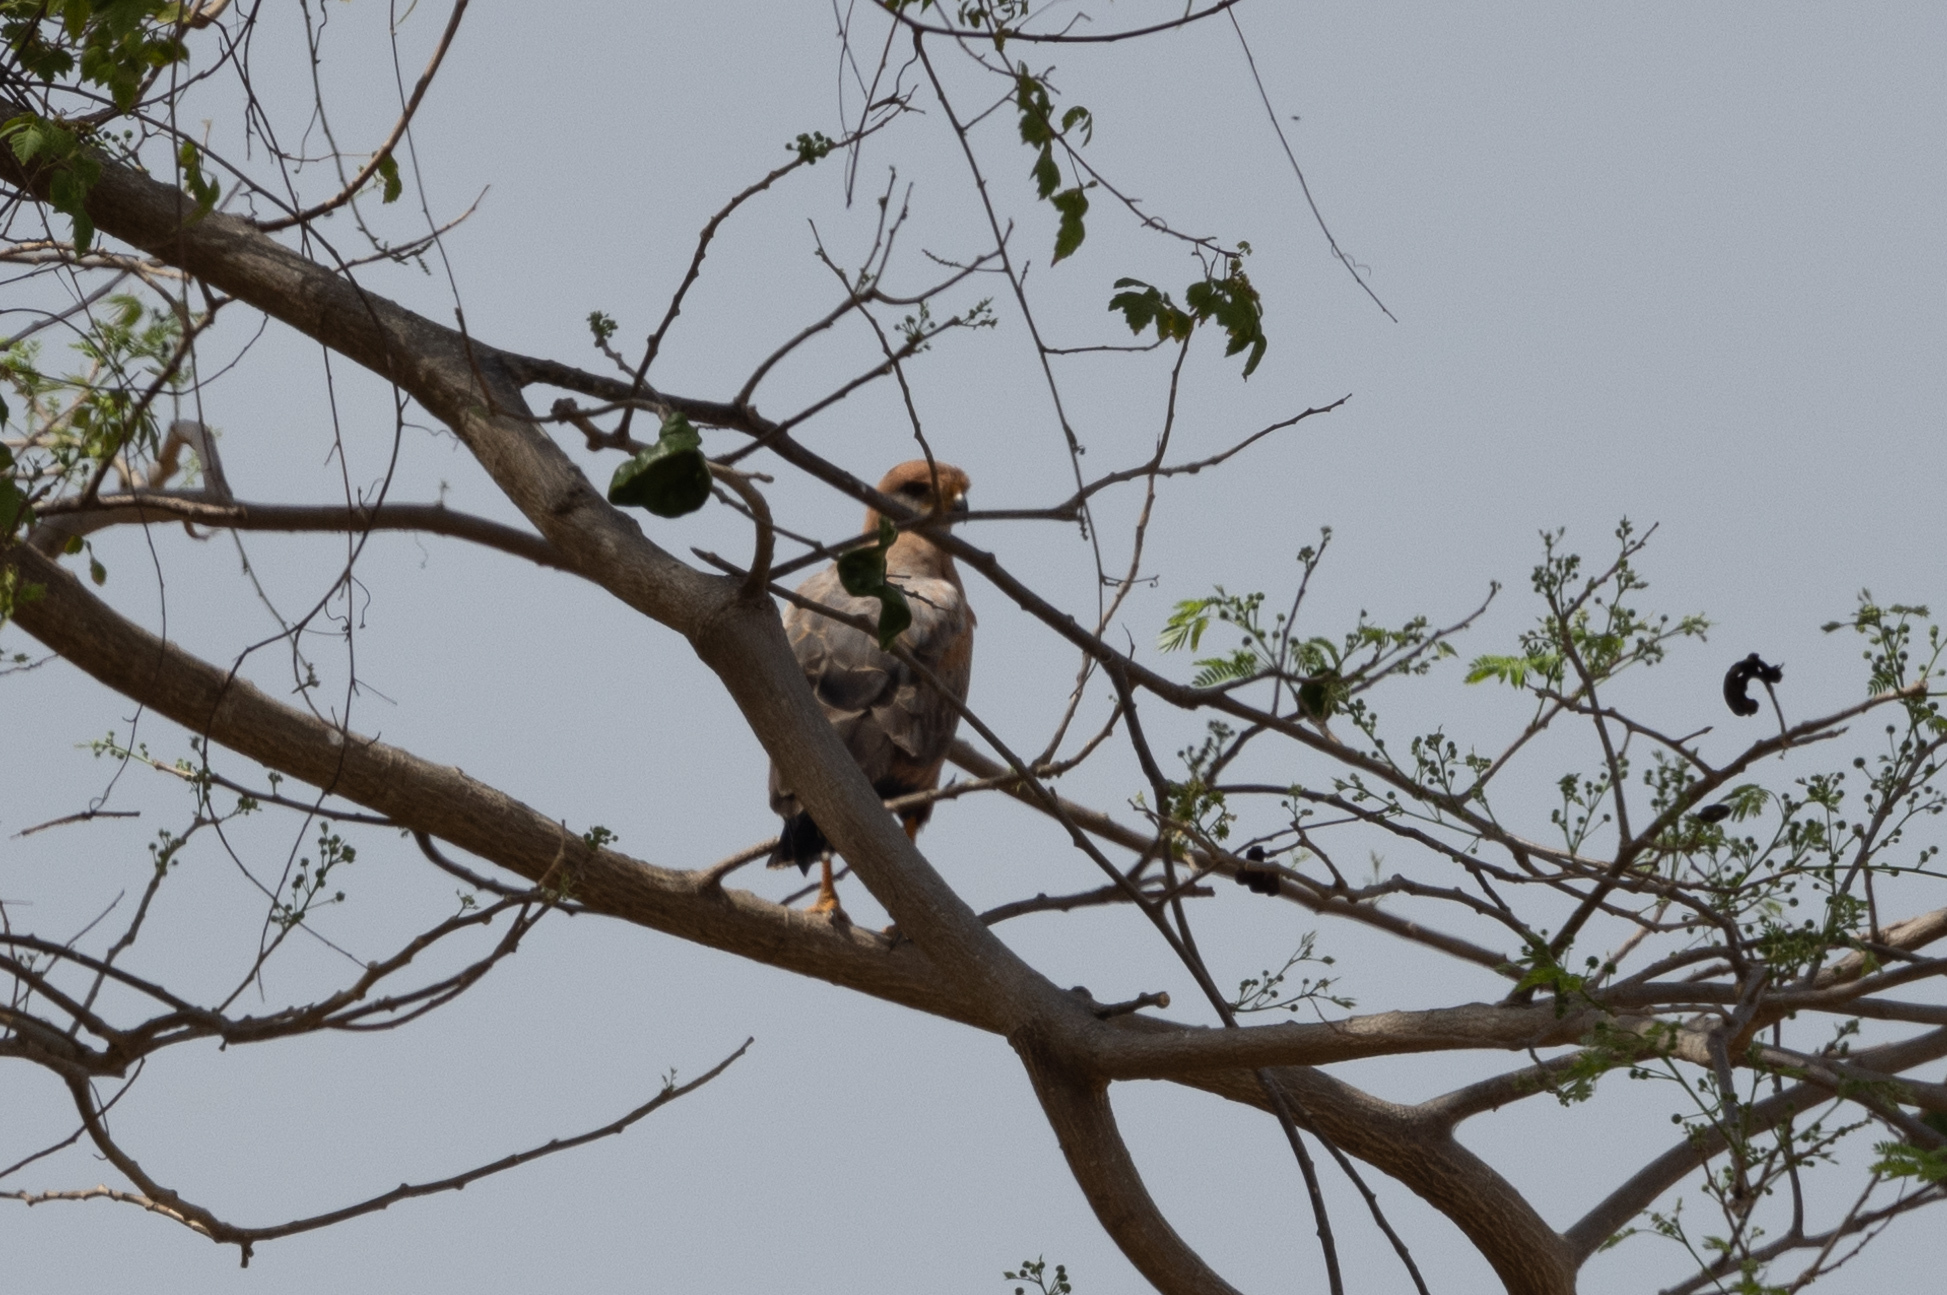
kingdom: Animalia
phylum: Chordata
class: Aves
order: Accipitriformes
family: Accipitridae
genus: Buteogallus
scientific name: Buteogallus meridionalis
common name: Savanna hawk
